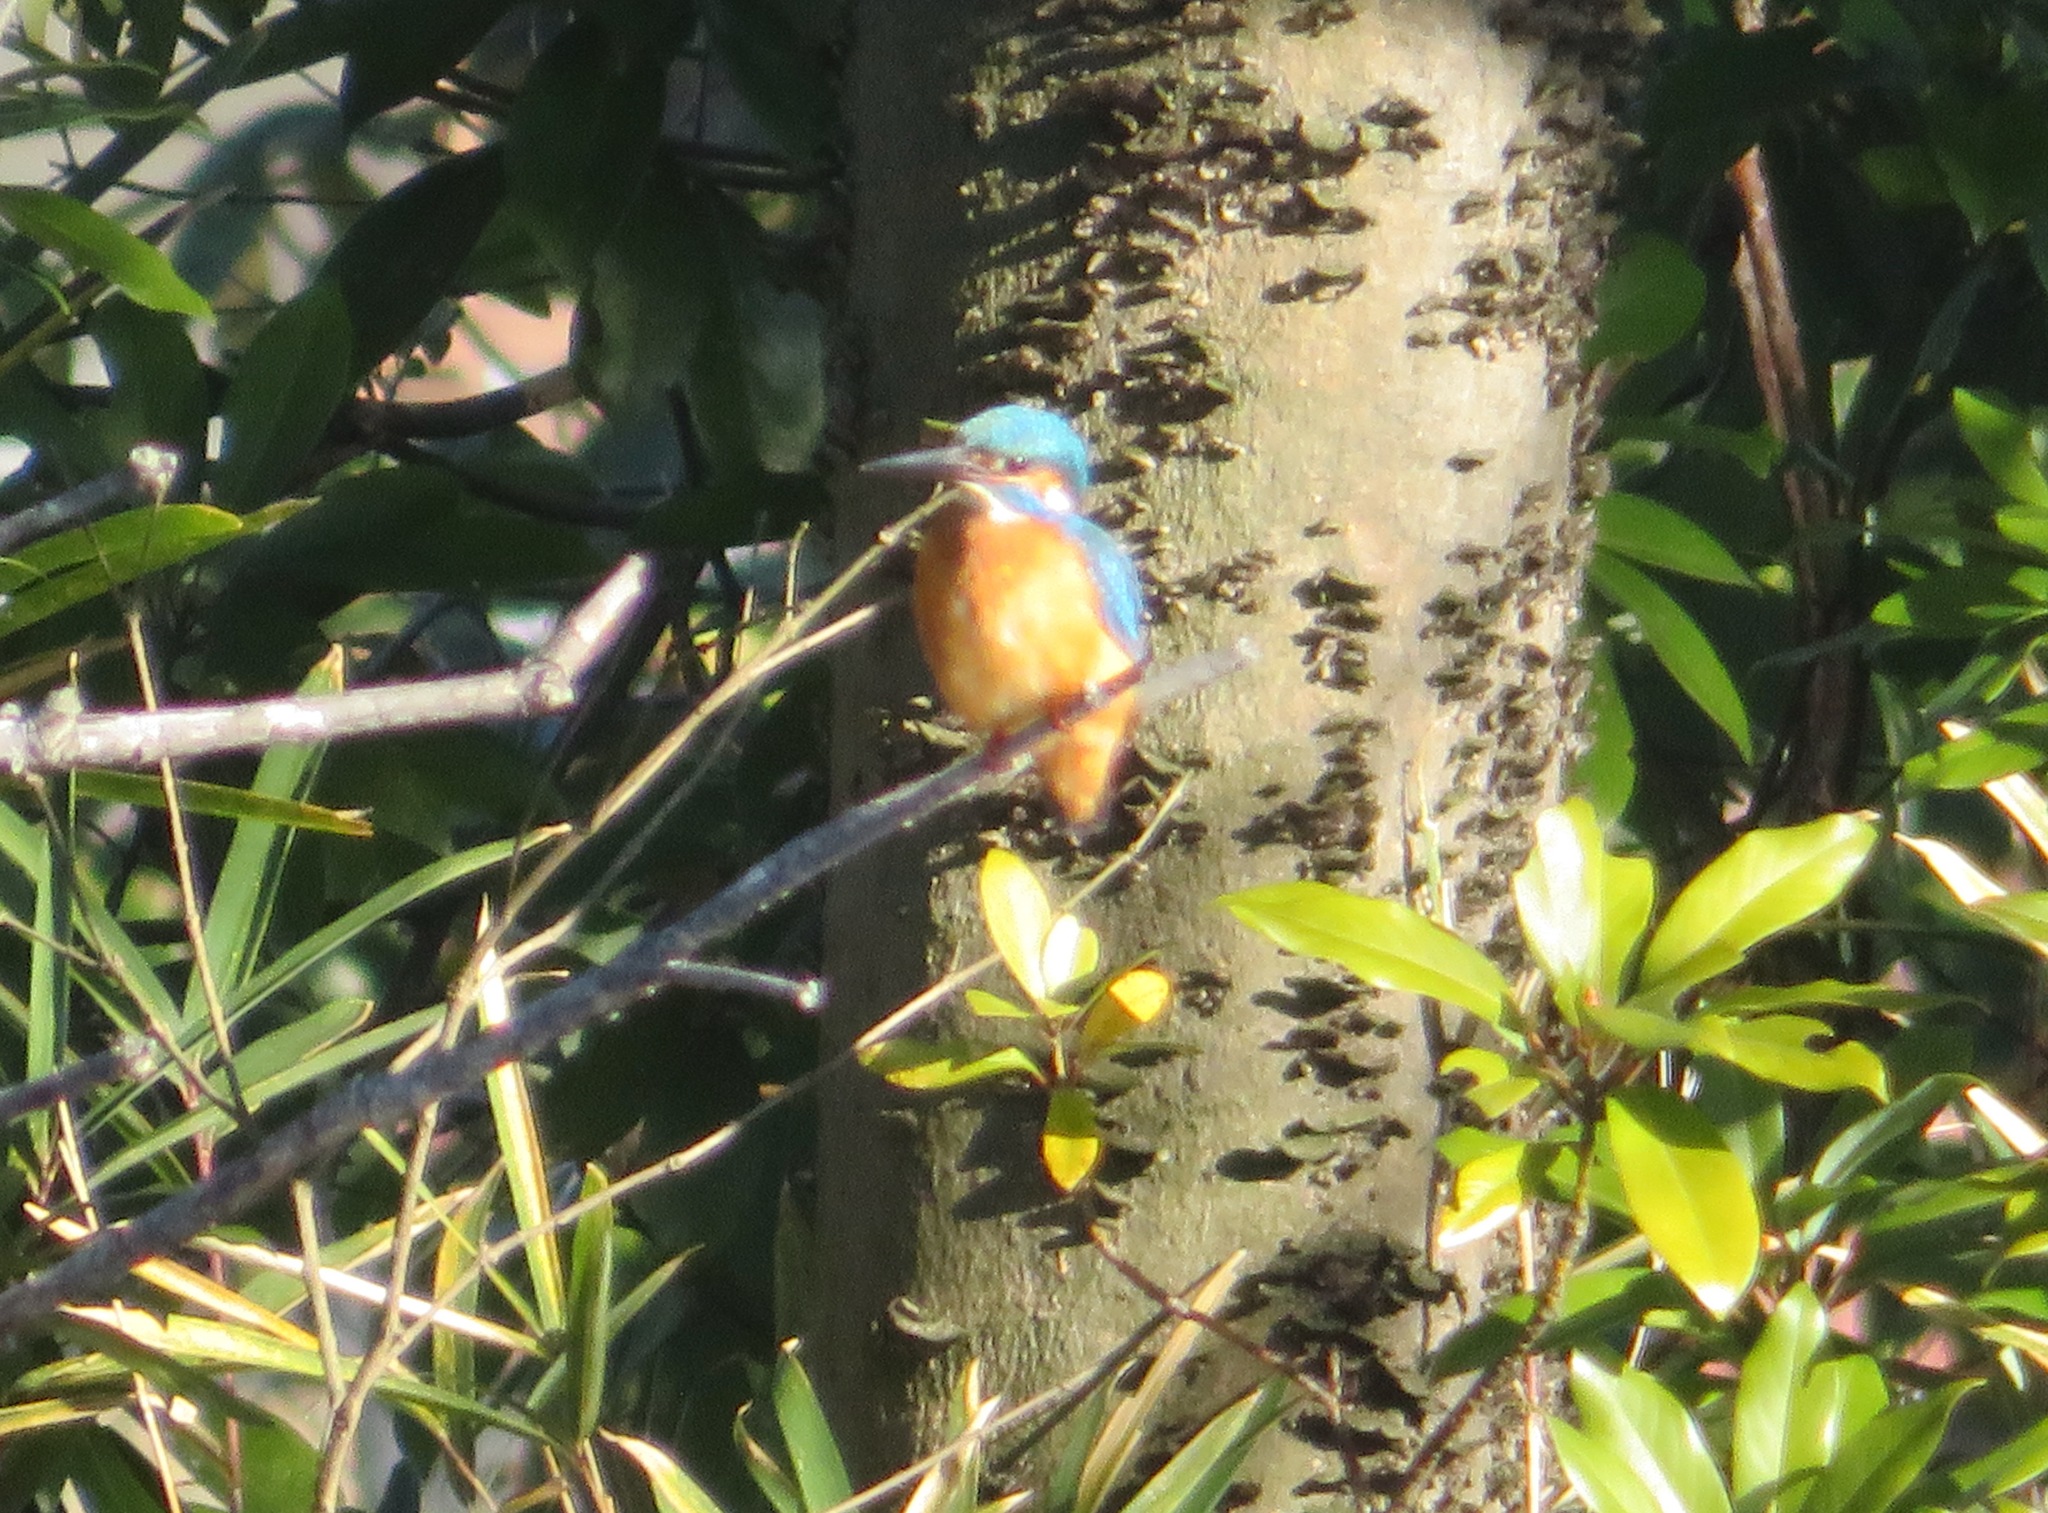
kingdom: Animalia
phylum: Chordata
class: Aves
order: Coraciiformes
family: Alcedinidae
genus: Alcedo
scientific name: Alcedo atthis
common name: Common kingfisher
